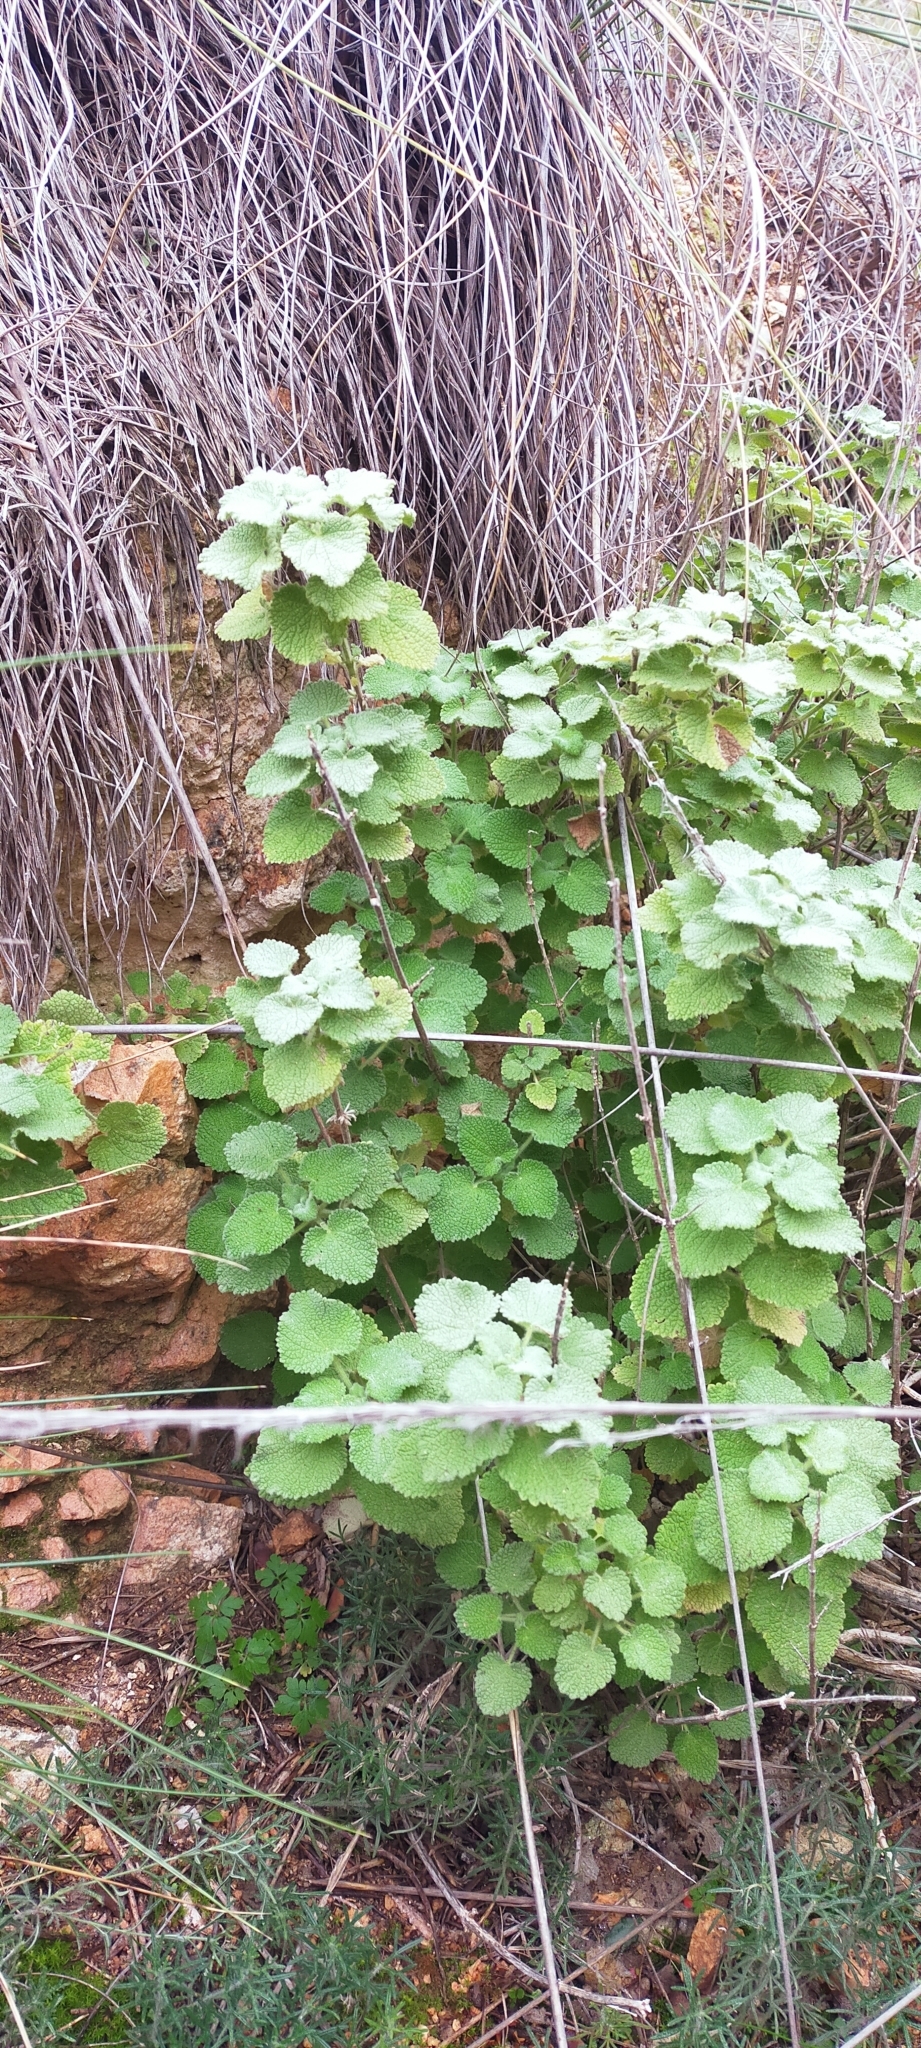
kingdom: Plantae
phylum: Tracheophyta
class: Magnoliopsida
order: Lamiales
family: Lamiaceae
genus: Pseudodictamnus
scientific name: Pseudodictamnus hirsutus
